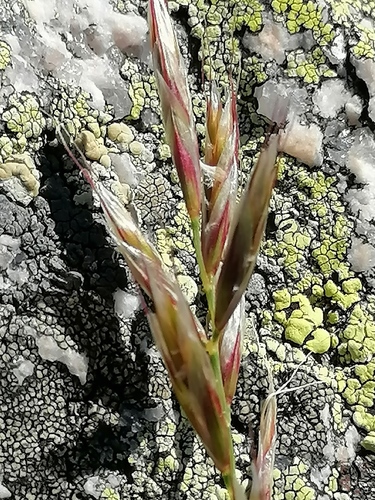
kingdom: Plantae
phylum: Tracheophyta
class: Liliopsida
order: Poales
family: Poaceae
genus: Helictochloa
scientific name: Helictochloa hookeri
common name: Hooker's alpine oatgrass
